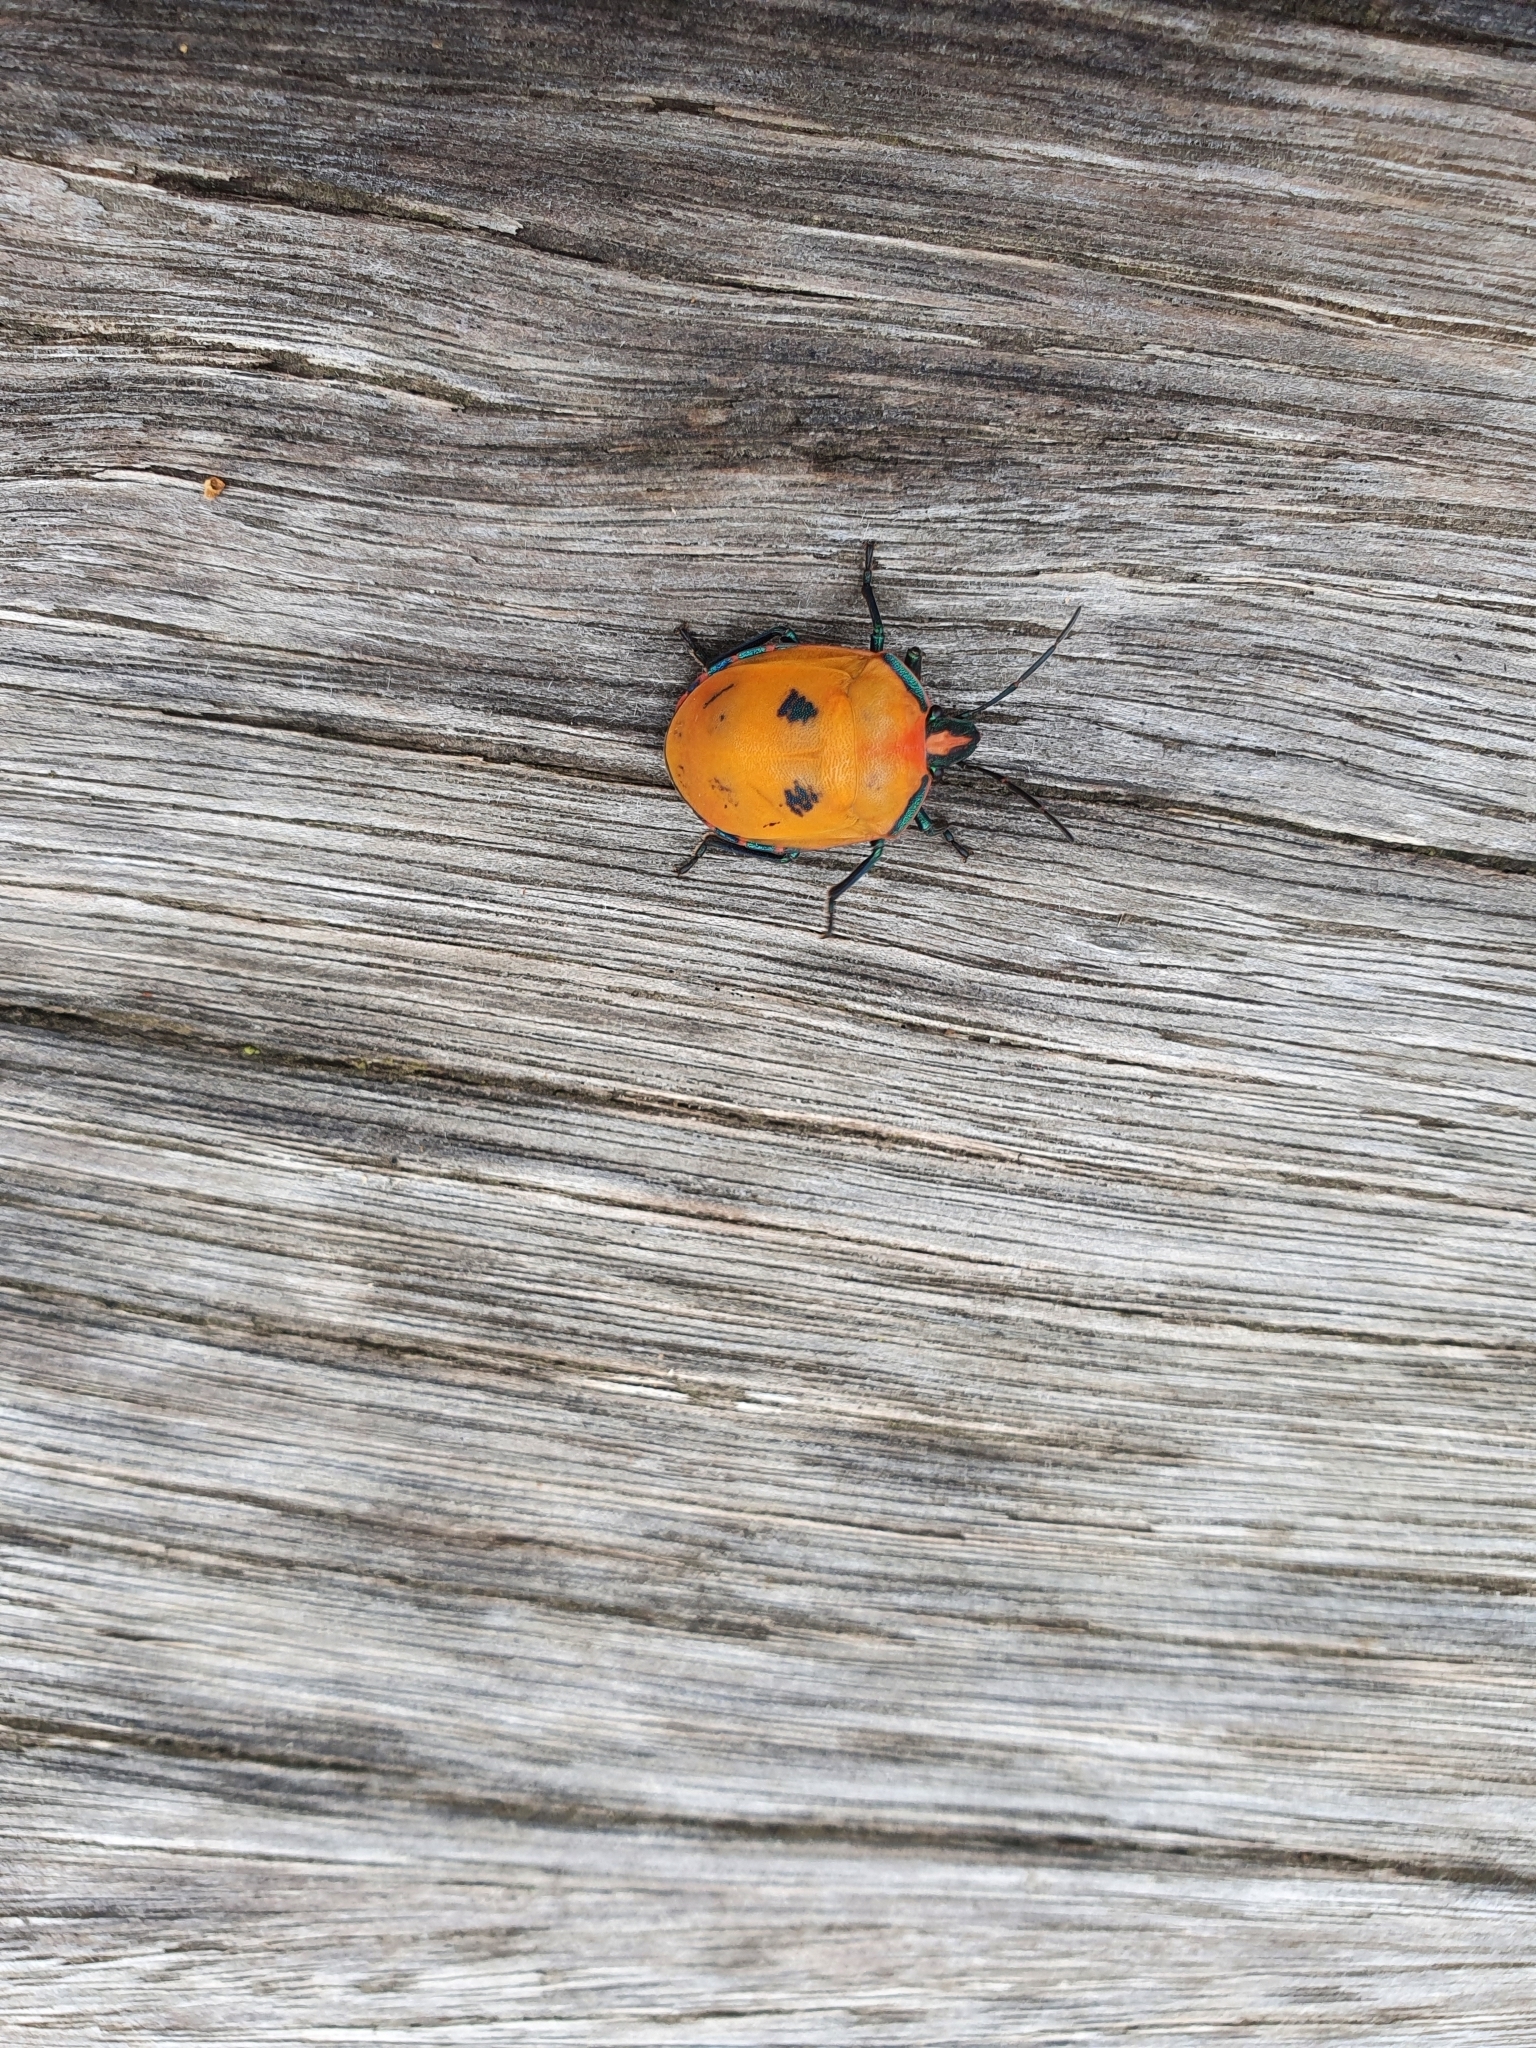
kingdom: Animalia
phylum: Arthropoda
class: Insecta
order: Hemiptera
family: Scutelleridae
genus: Tectocoris
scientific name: Tectocoris diophthalmus
